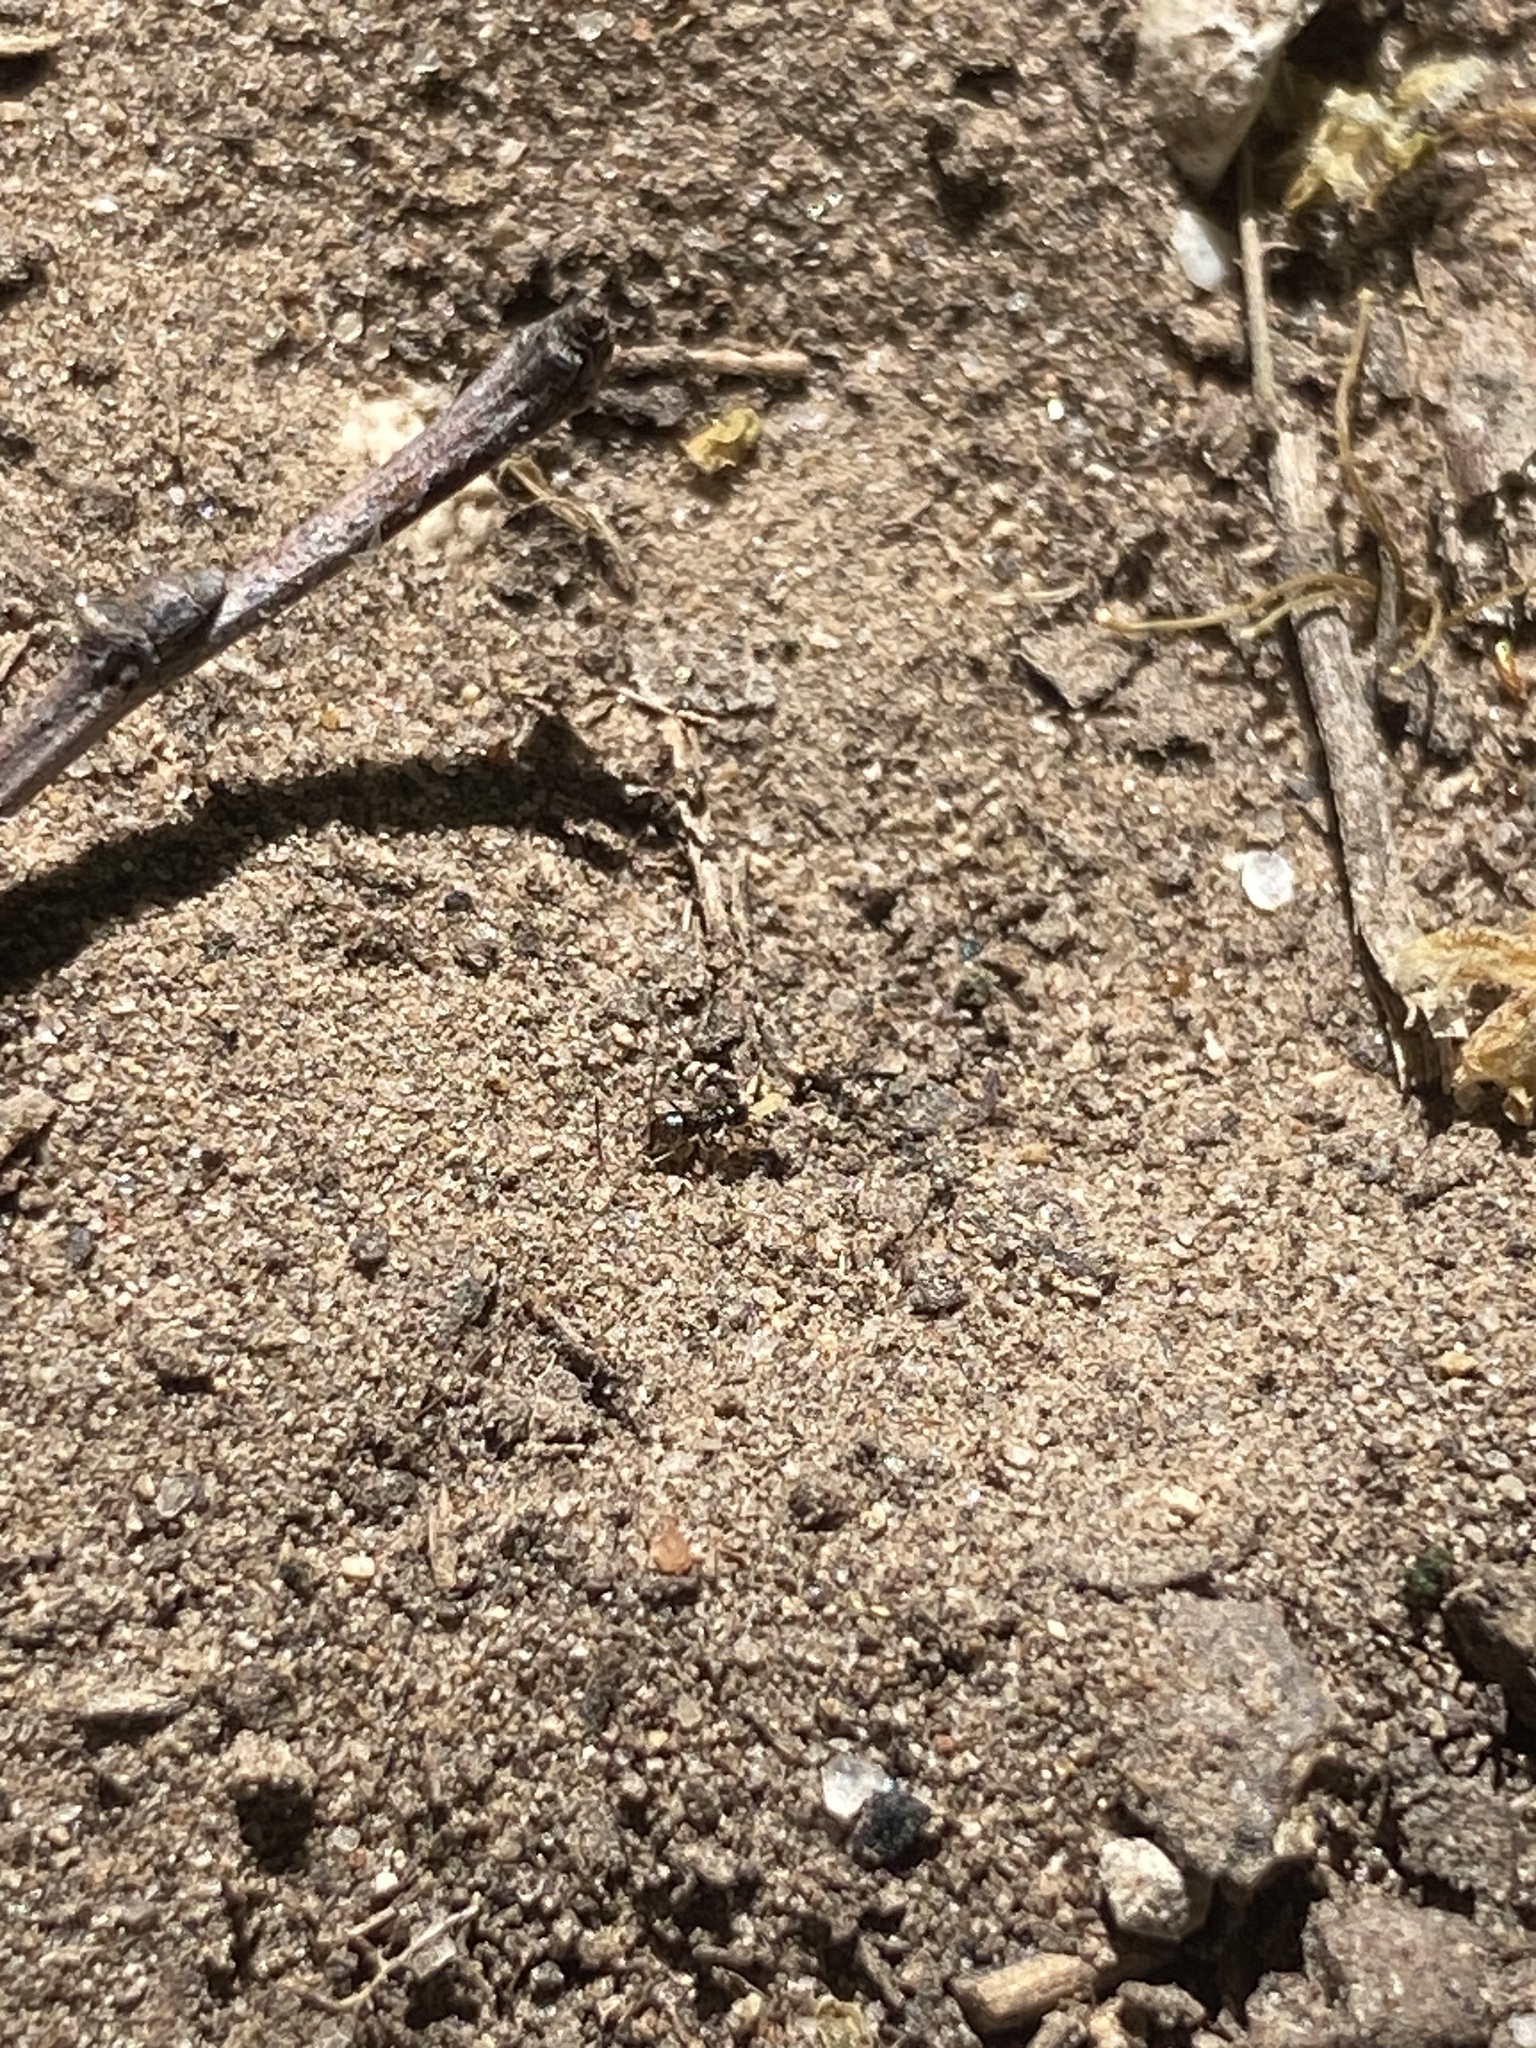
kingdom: Animalia
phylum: Arthropoda
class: Insecta
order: Hymenoptera
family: Formicidae
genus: Brachymyrmex
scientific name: Brachymyrmex patagonicus
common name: Dark rover ant
